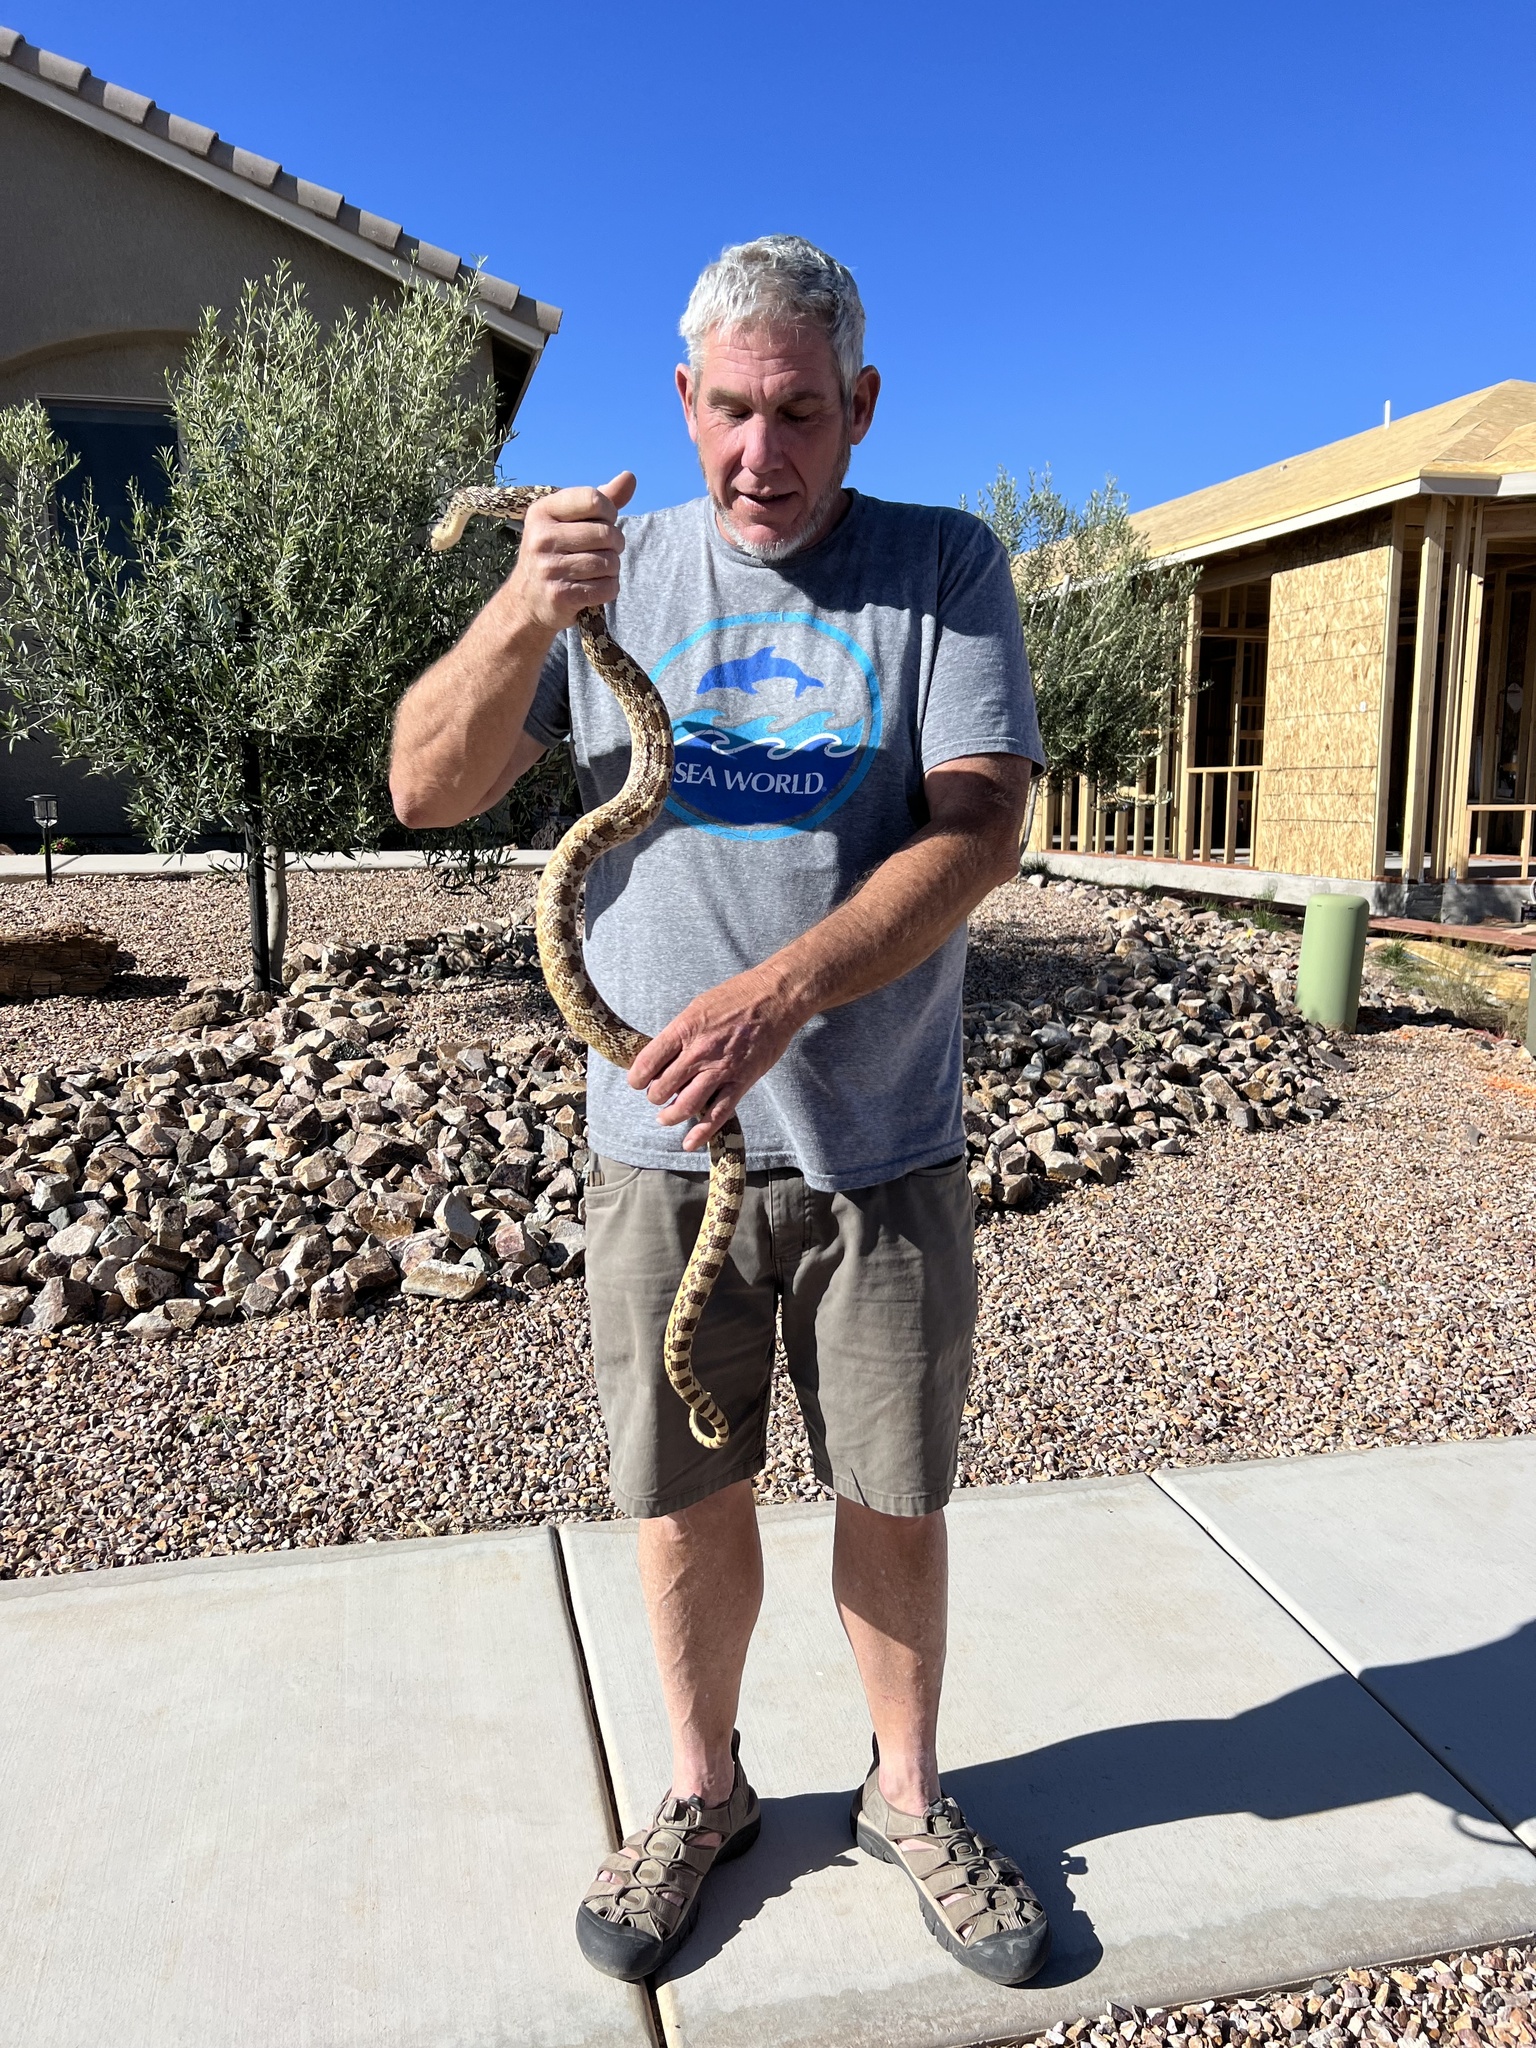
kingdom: Animalia
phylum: Chordata
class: Squamata
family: Colubridae
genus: Pituophis
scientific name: Pituophis catenifer
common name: Gopher snake
